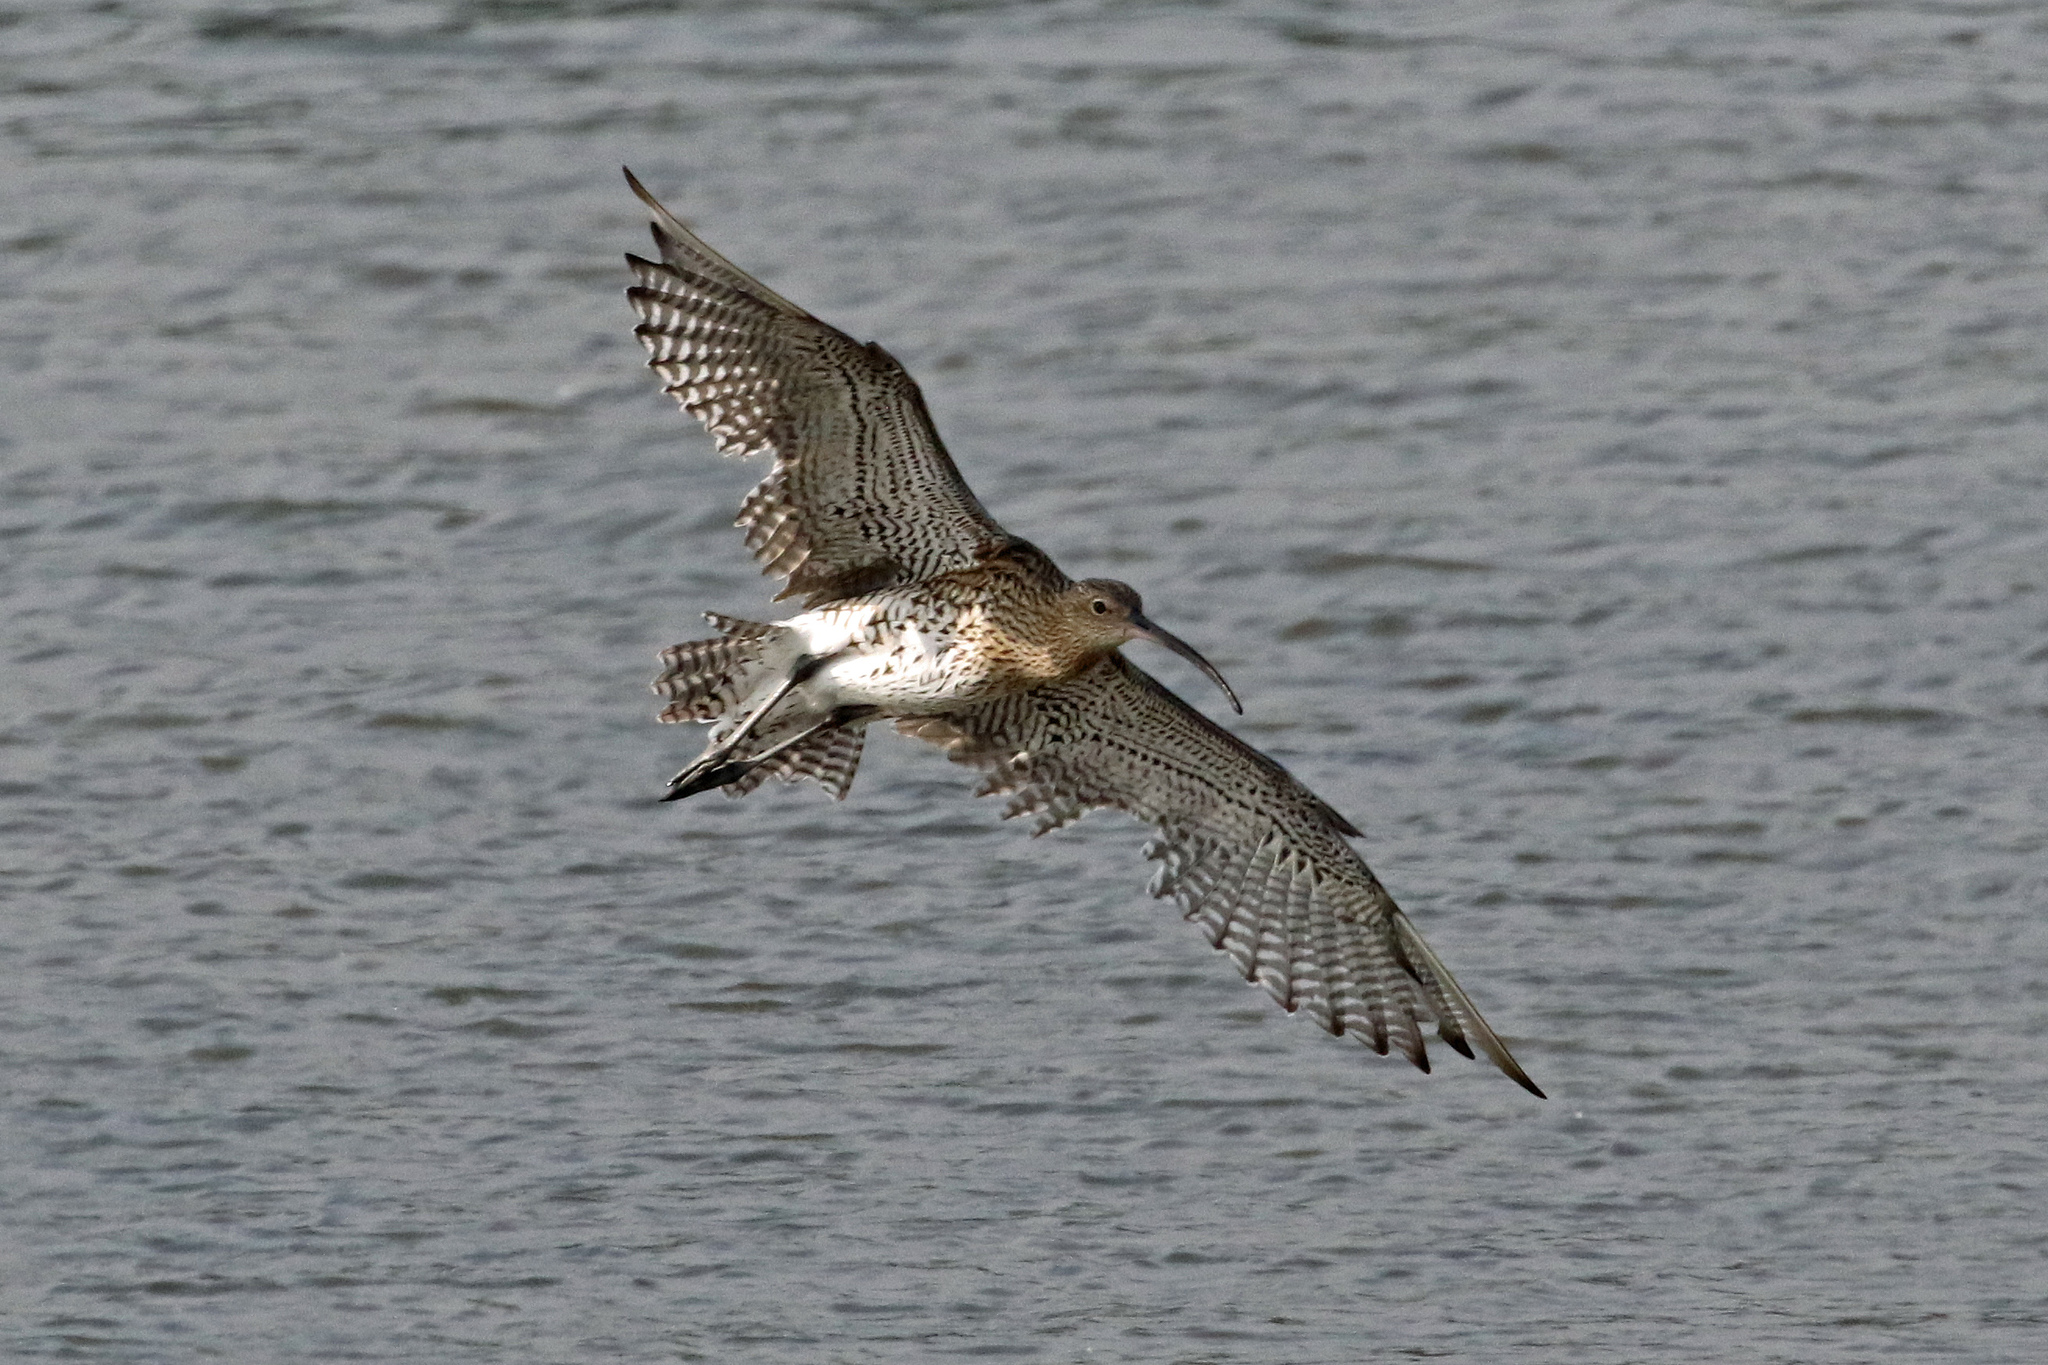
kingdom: Animalia
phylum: Chordata
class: Aves
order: Charadriiformes
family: Scolopacidae
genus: Numenius
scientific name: Numenius arquata
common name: Eurasian curlew
